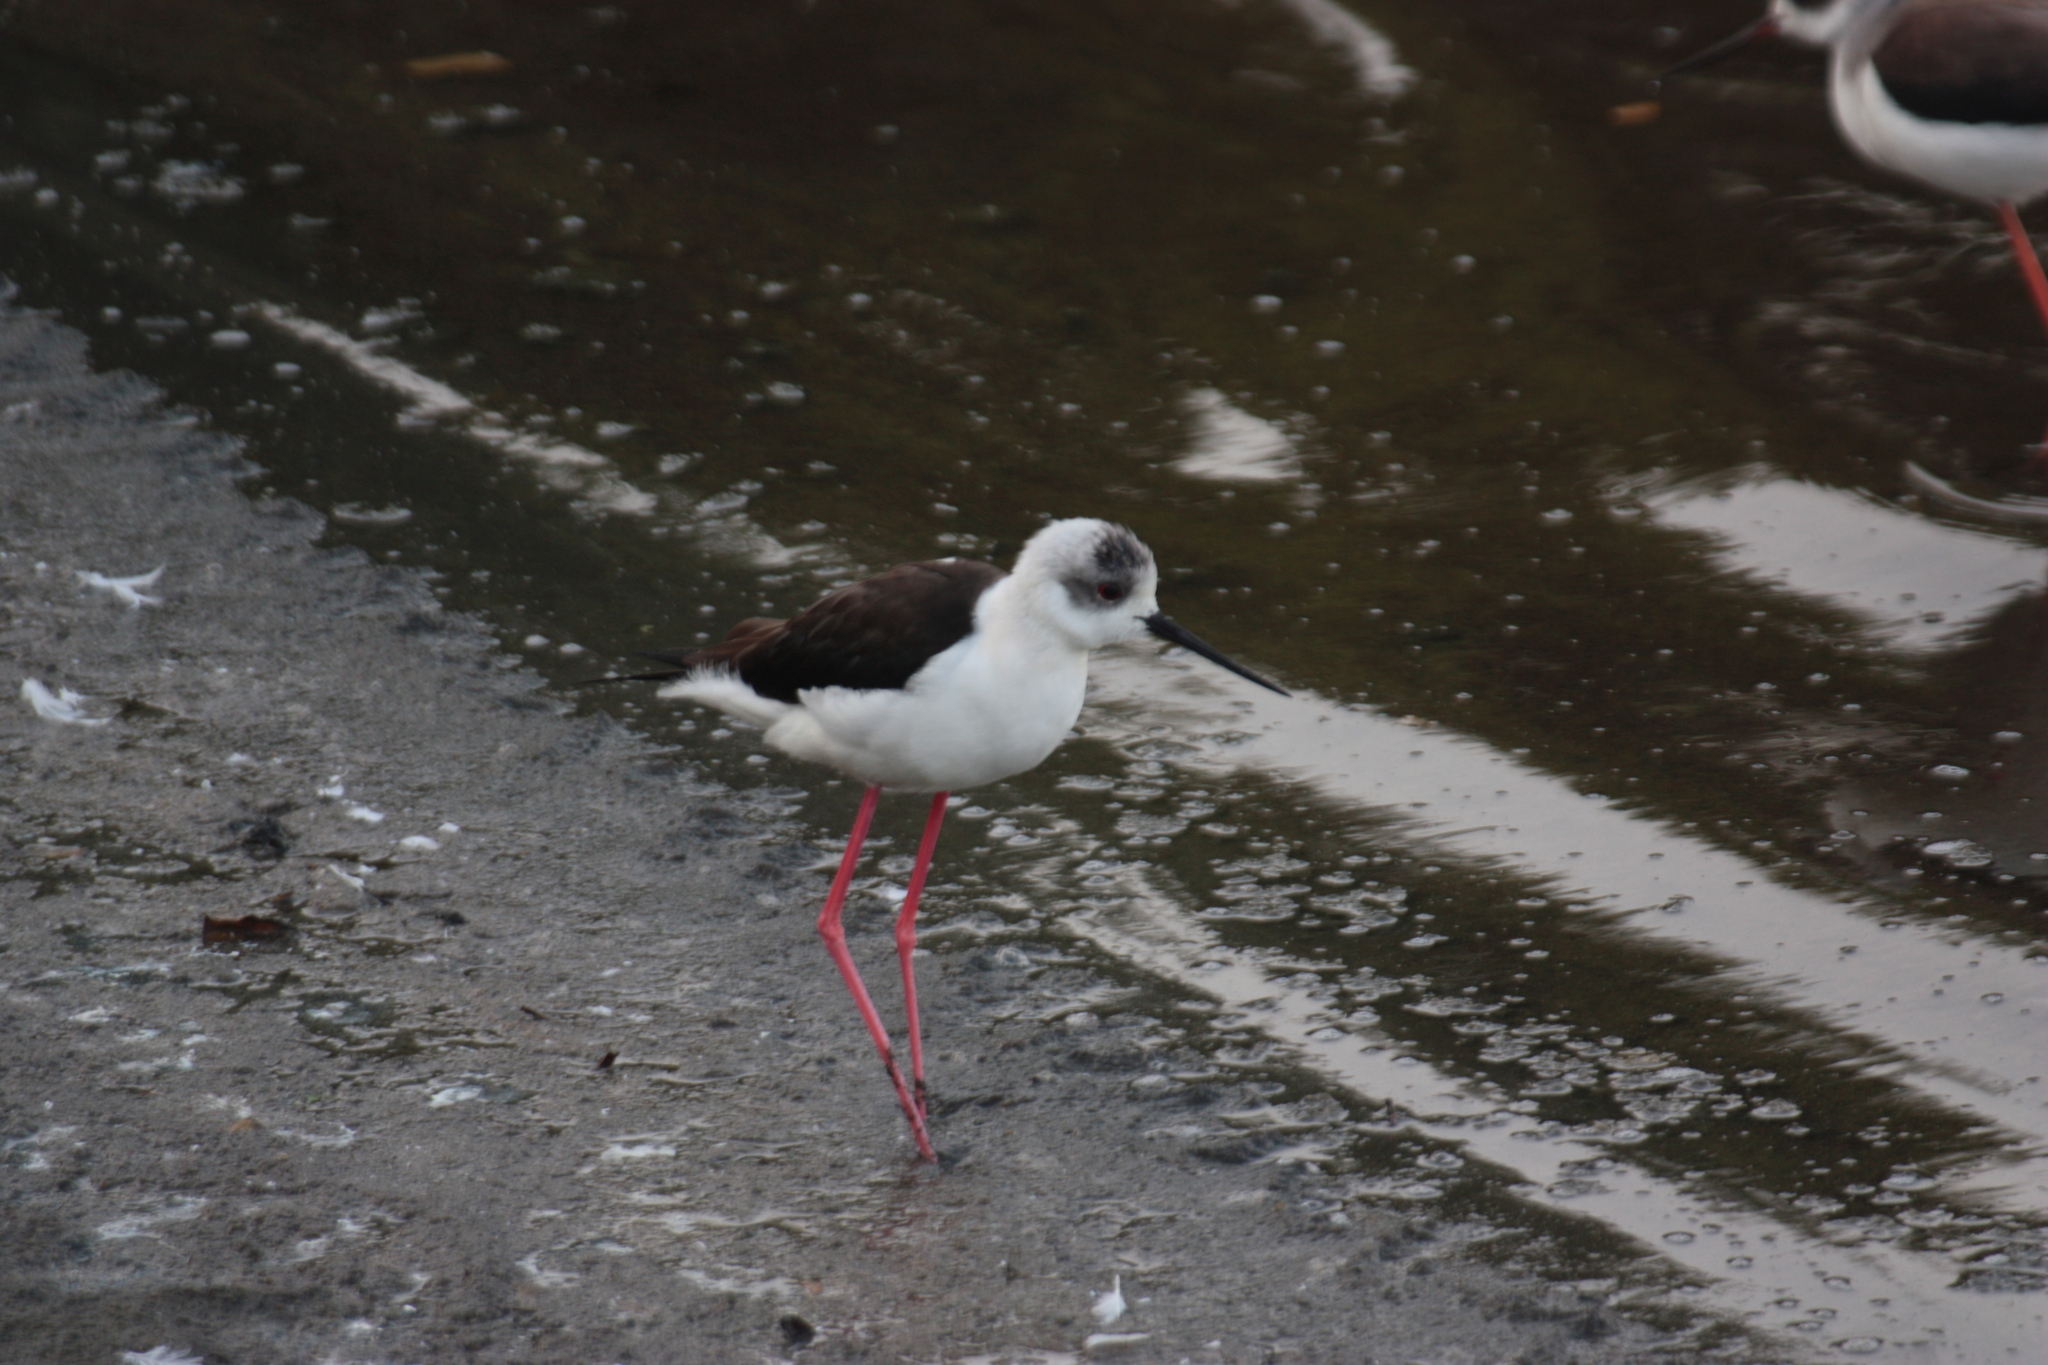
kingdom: Animalia
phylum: Chordata
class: Aves
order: Charadriiformes
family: Recurvirostridae
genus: Himantopus
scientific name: Himantopus himantopus
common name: Black-winged stilt
